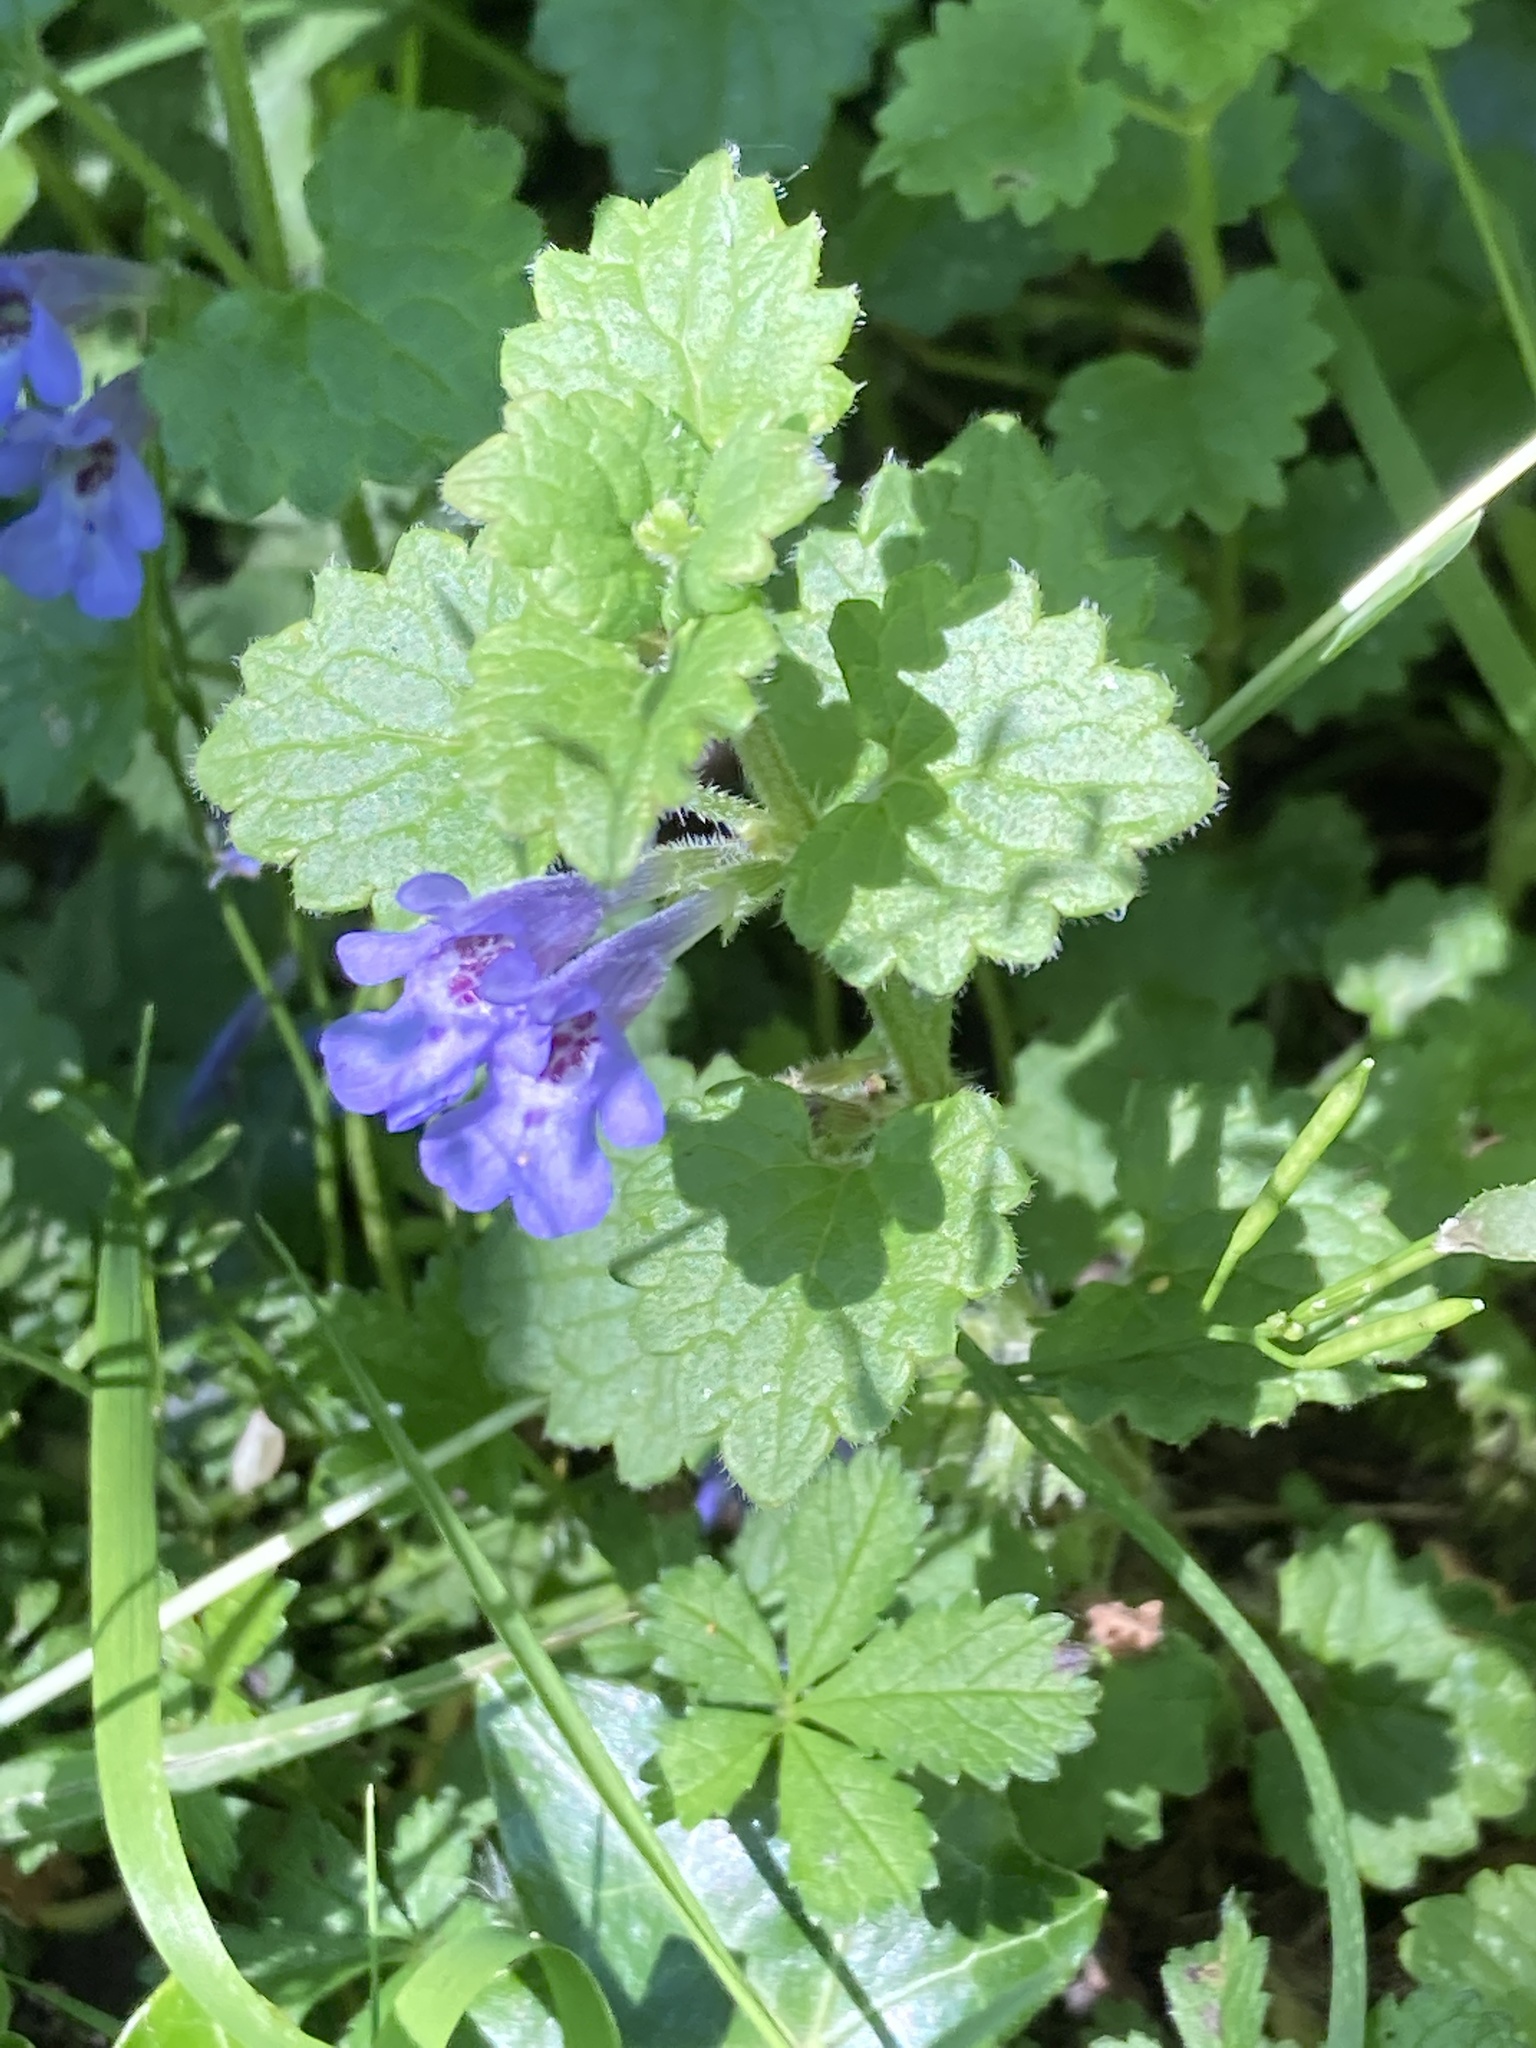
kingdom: Plantae
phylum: Tracheophyta
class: Magnoliopsida
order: Lamiales
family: Lamiaceae
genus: Glechoma
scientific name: Glechoma hederacea
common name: Ground ivy
